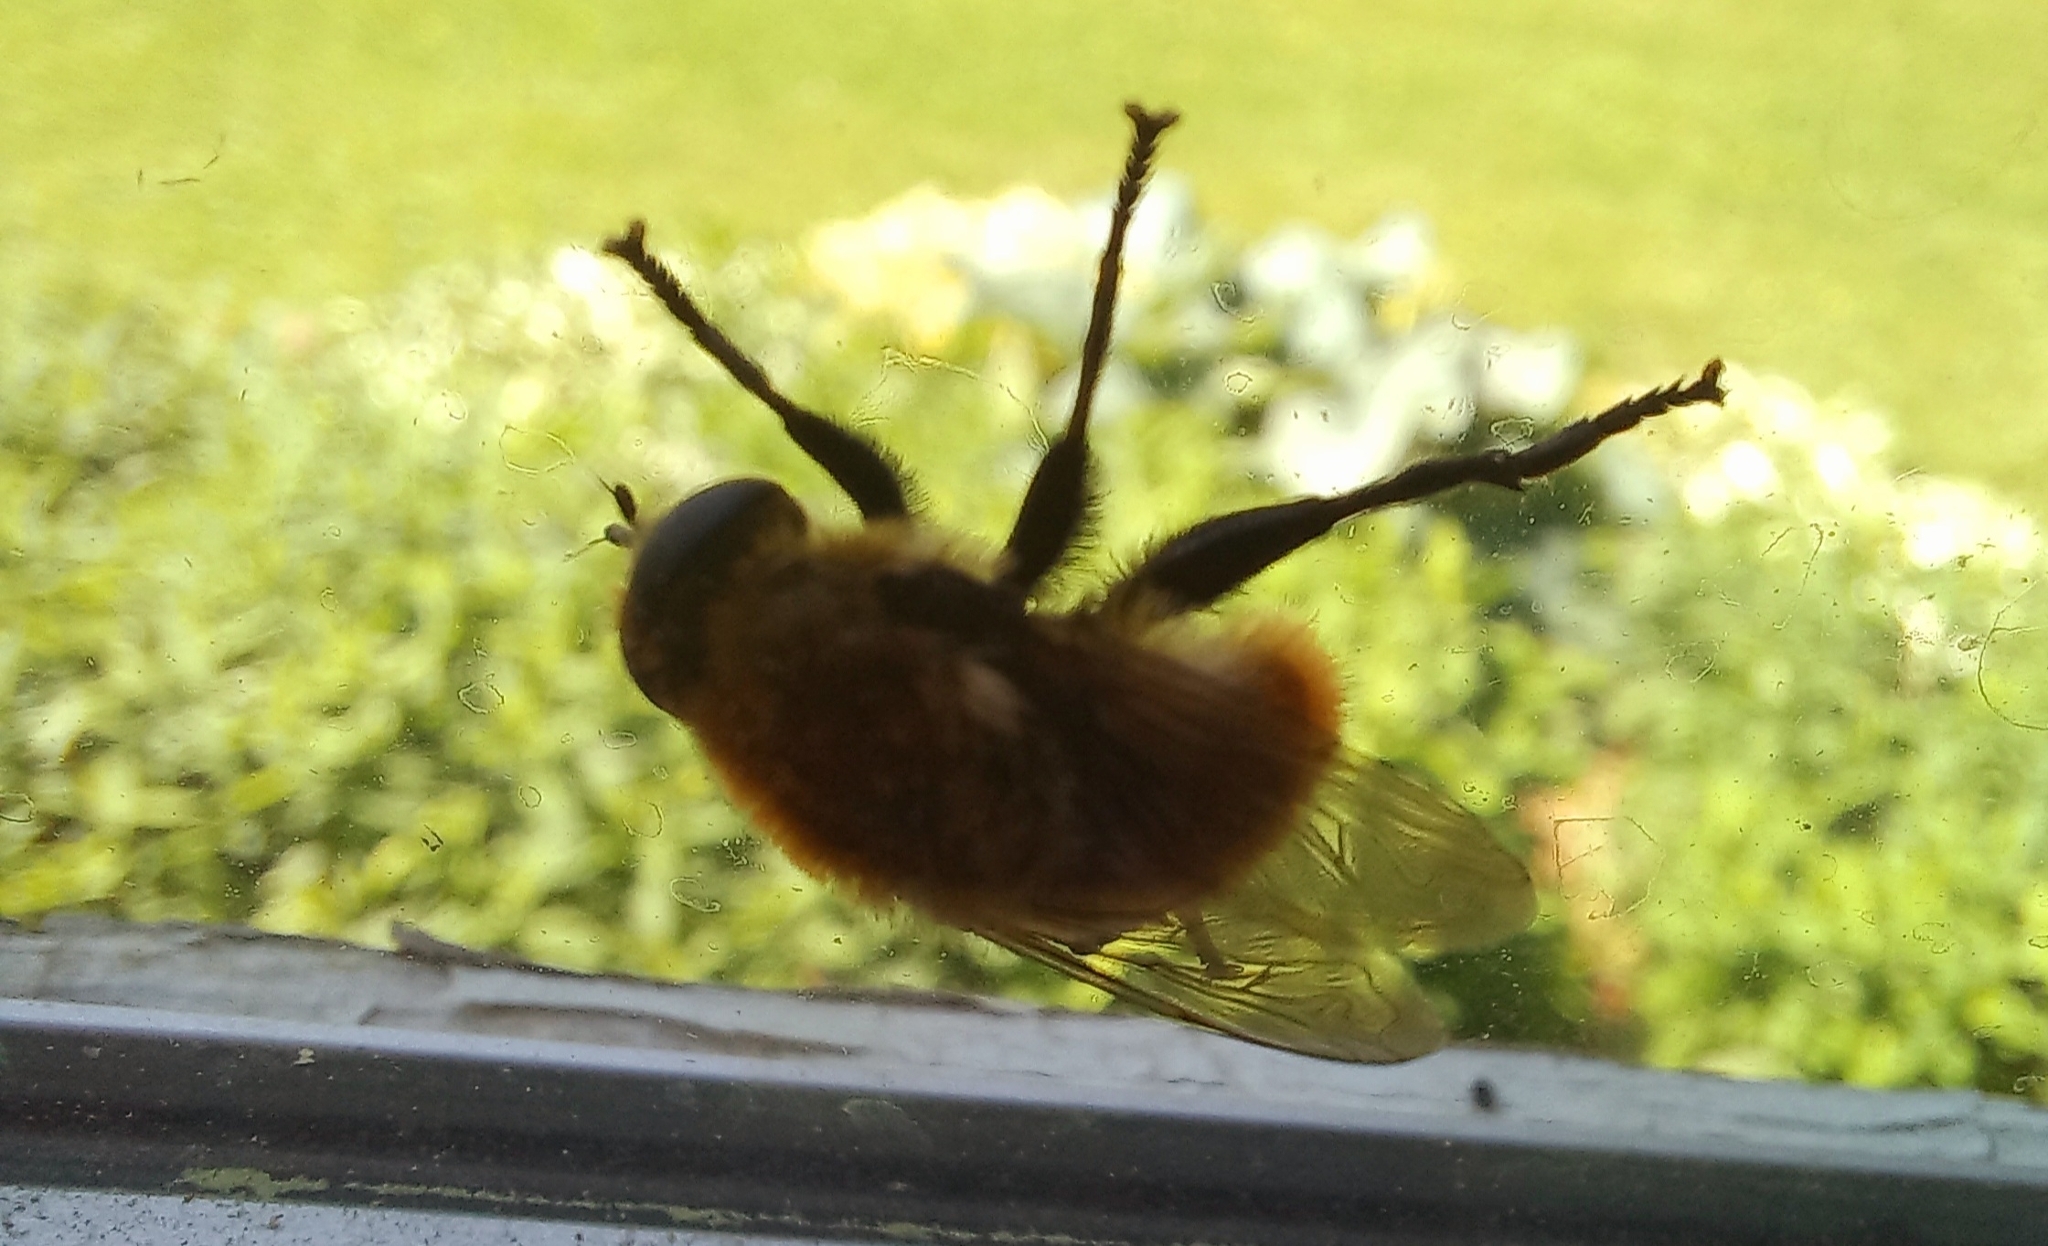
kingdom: Animalia
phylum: Arthropoda
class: Insecta
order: Diptera
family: Syrphidae
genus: Merodon
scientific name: Merodon equestris
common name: Greater bulb-fly
